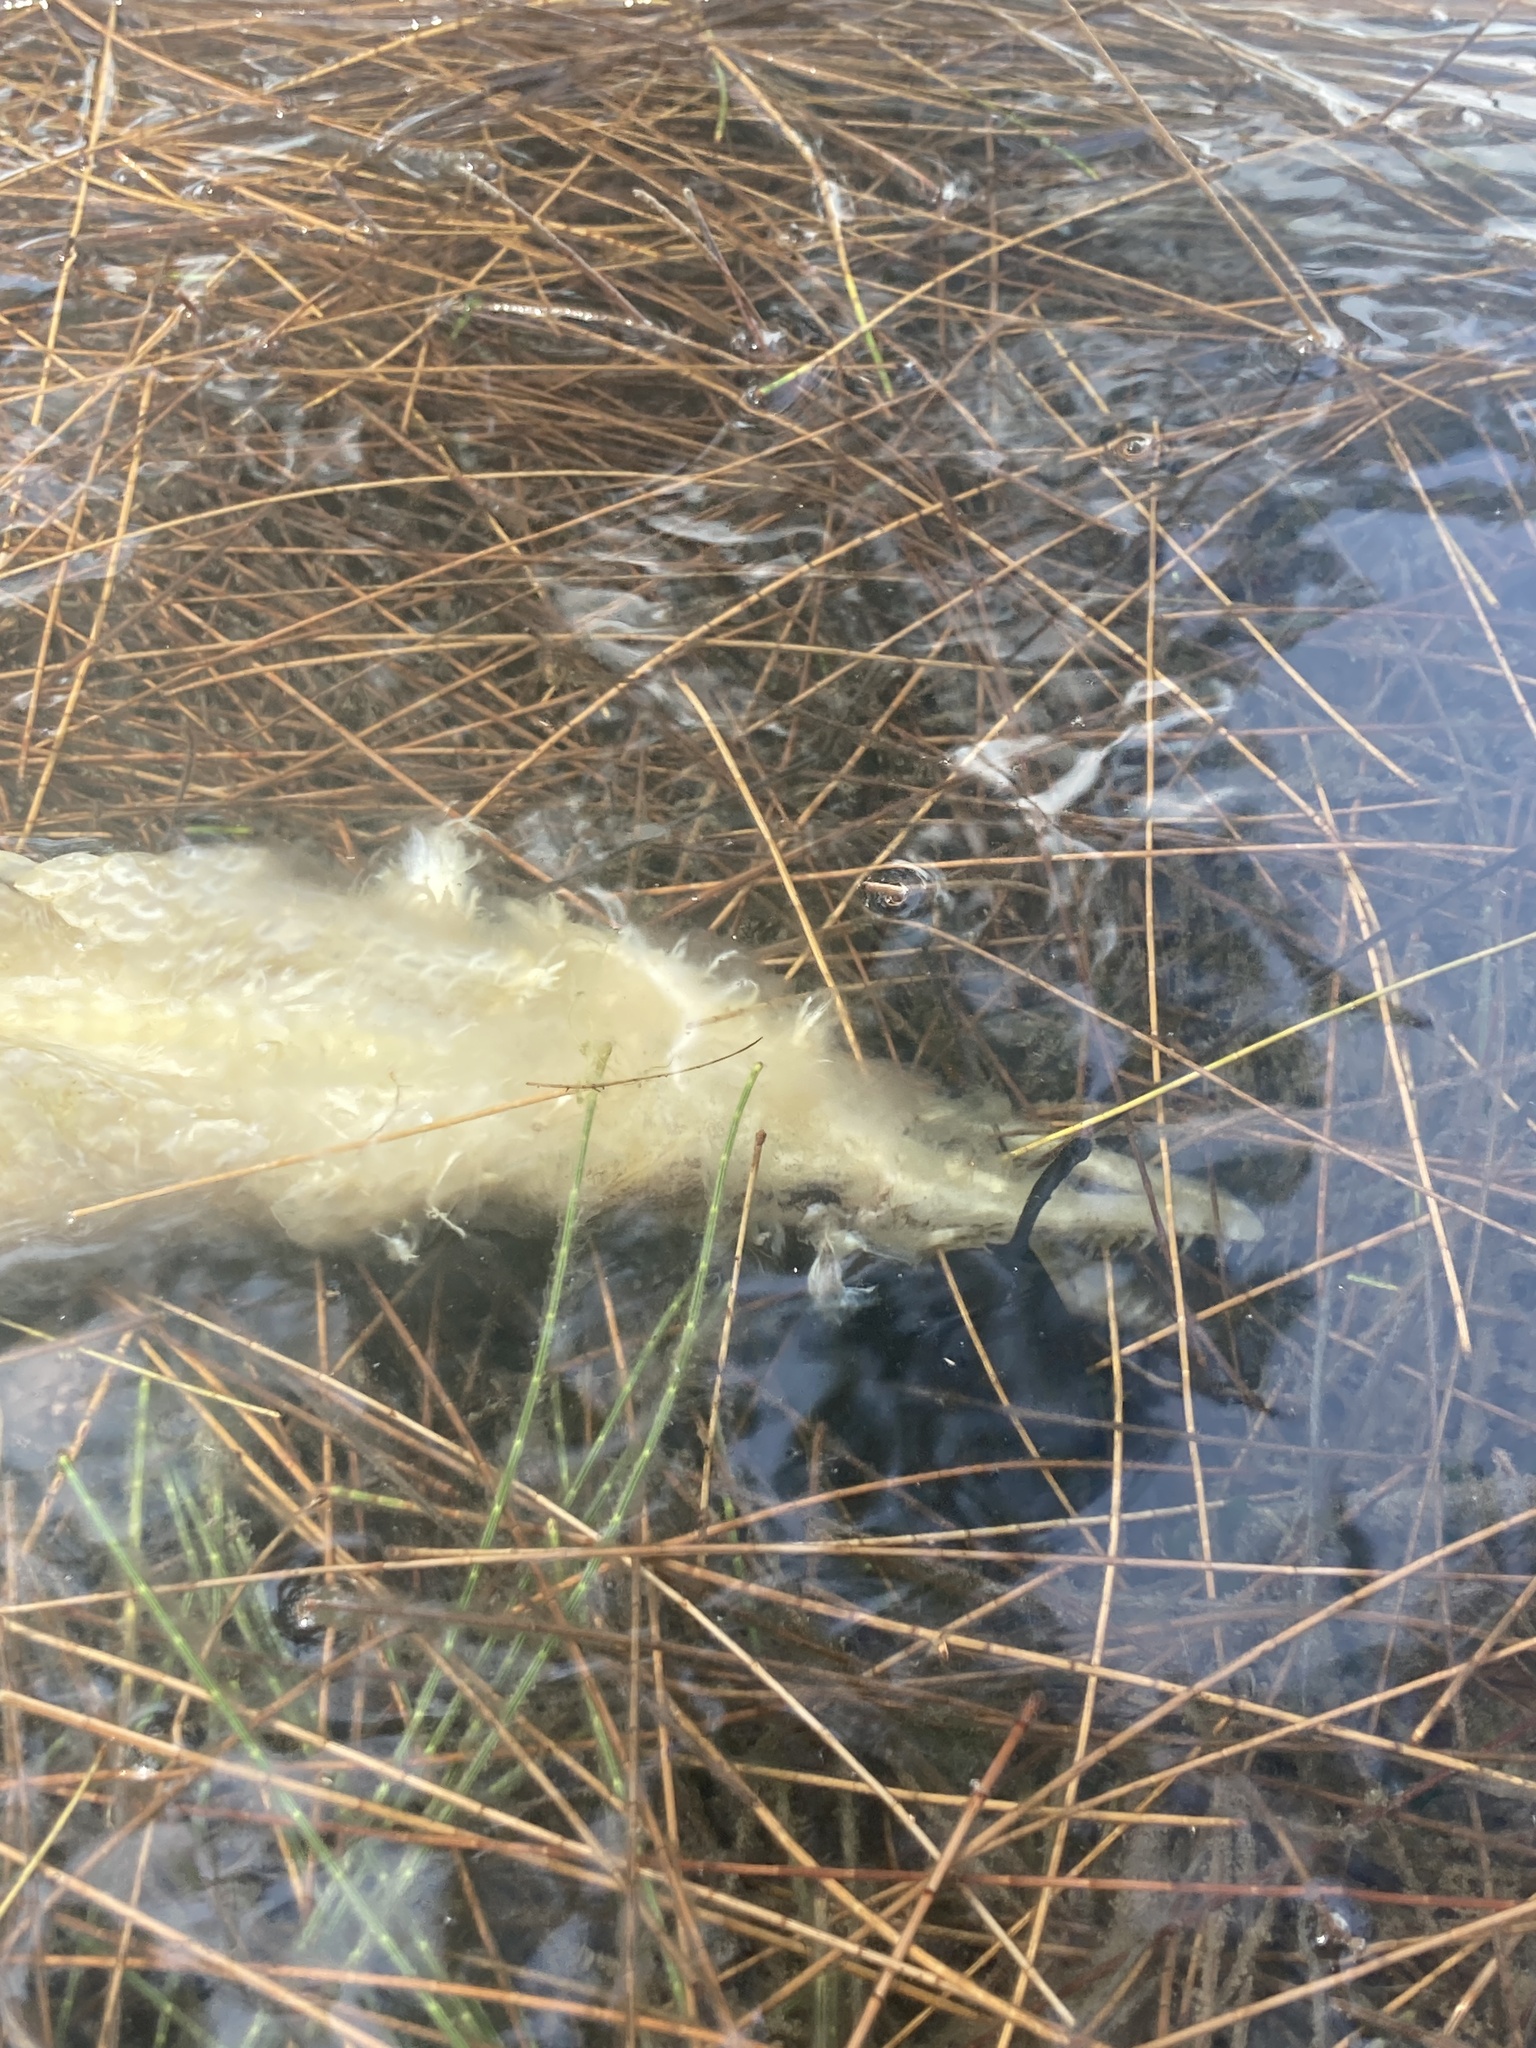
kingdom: Animalia
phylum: Chordata
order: Lepisosteiformes
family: Lepisosteidae
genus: Lepisosteus
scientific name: Lepisosteus platyrhincus
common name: Florida gar
